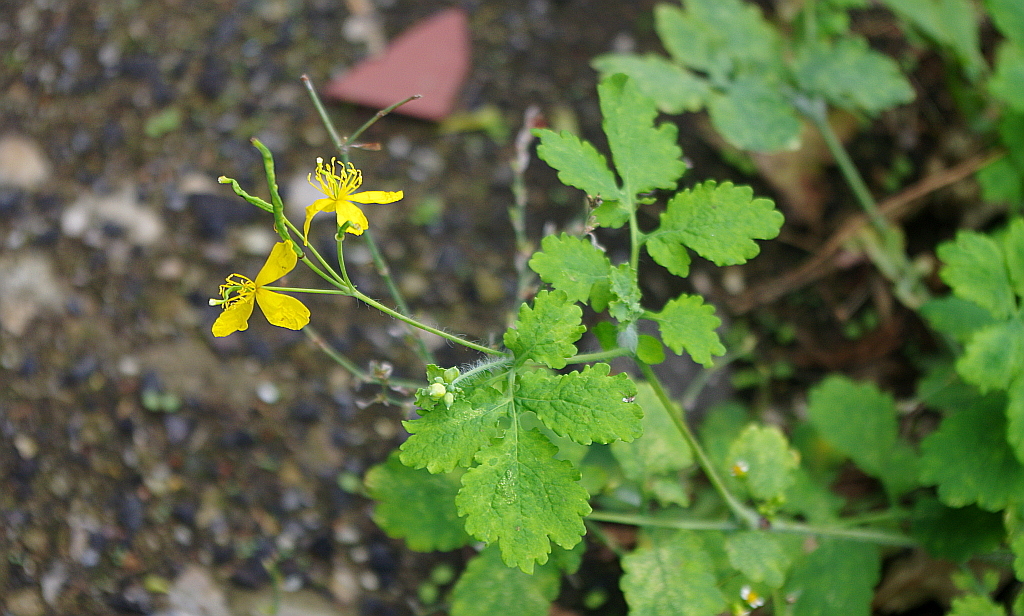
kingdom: Plantae
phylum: Tracheophyta
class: Magnoliopsida
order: Ranunculales
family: Papaveraceae
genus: Chelidonium
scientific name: Chelidonium majus
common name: Greater celandine
